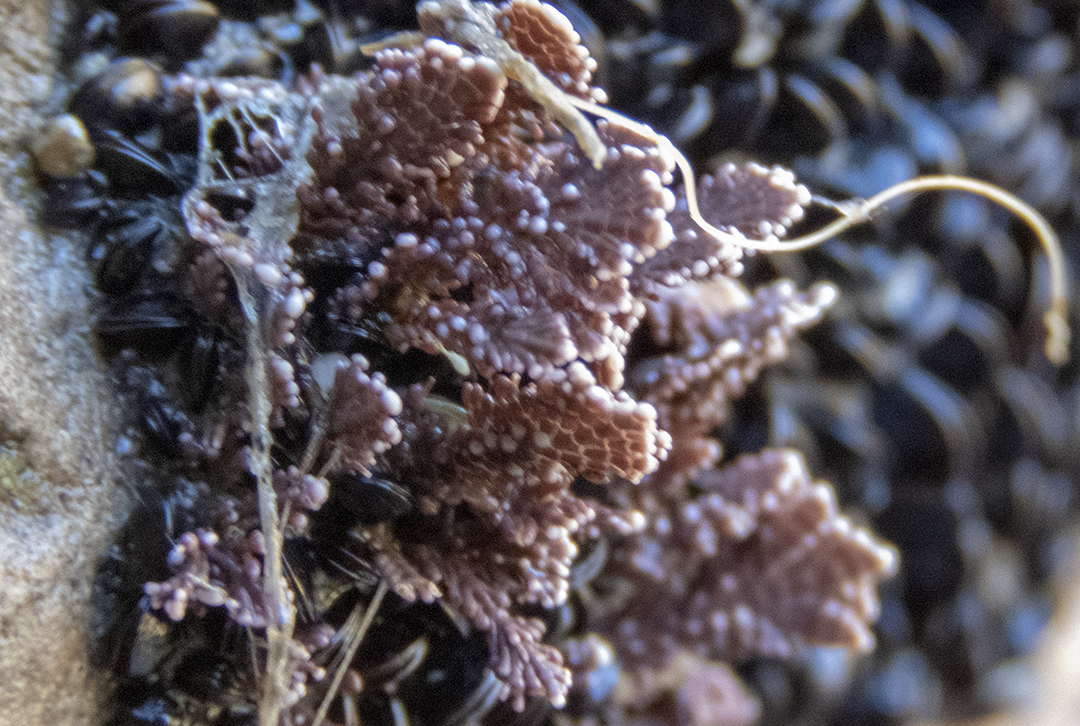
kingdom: Plantae
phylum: Rhodophyta
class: Florideophyceae
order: Corallinales
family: Corallinaceae
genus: Arthrocardia
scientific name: Arthrocardia corymbosa
